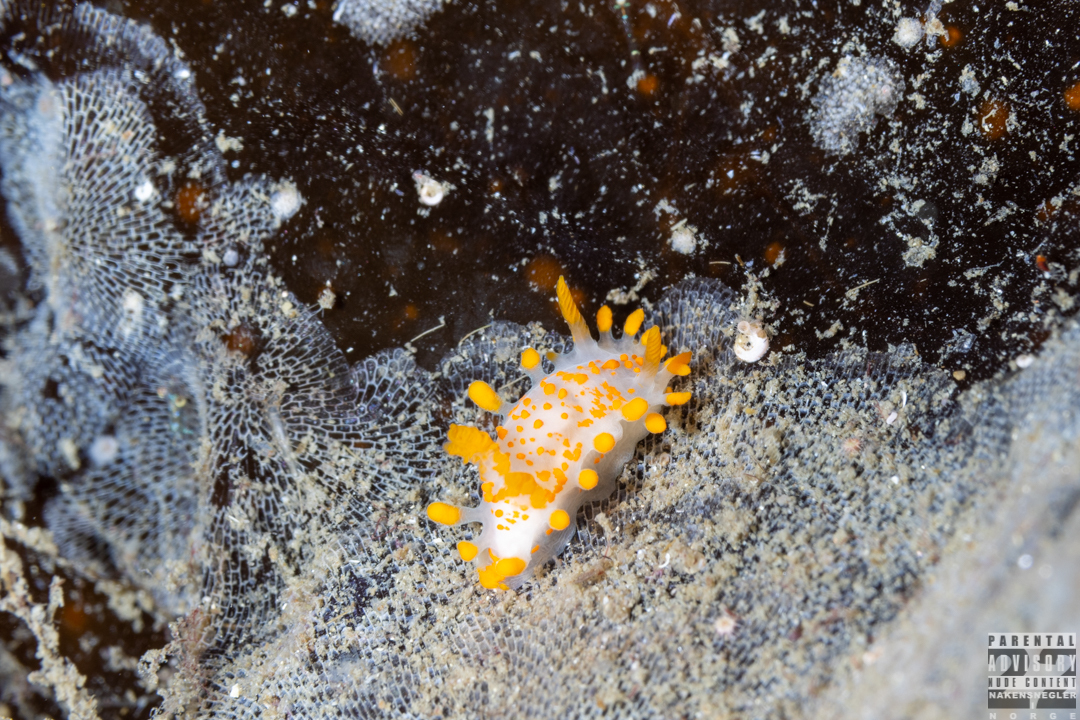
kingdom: Animalia
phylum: Mollusca
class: Gastropoda
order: Nudibranchia
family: Polyceridae
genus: Limacia
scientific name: Limacia clavigera
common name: Orange-clubbed sea slug
